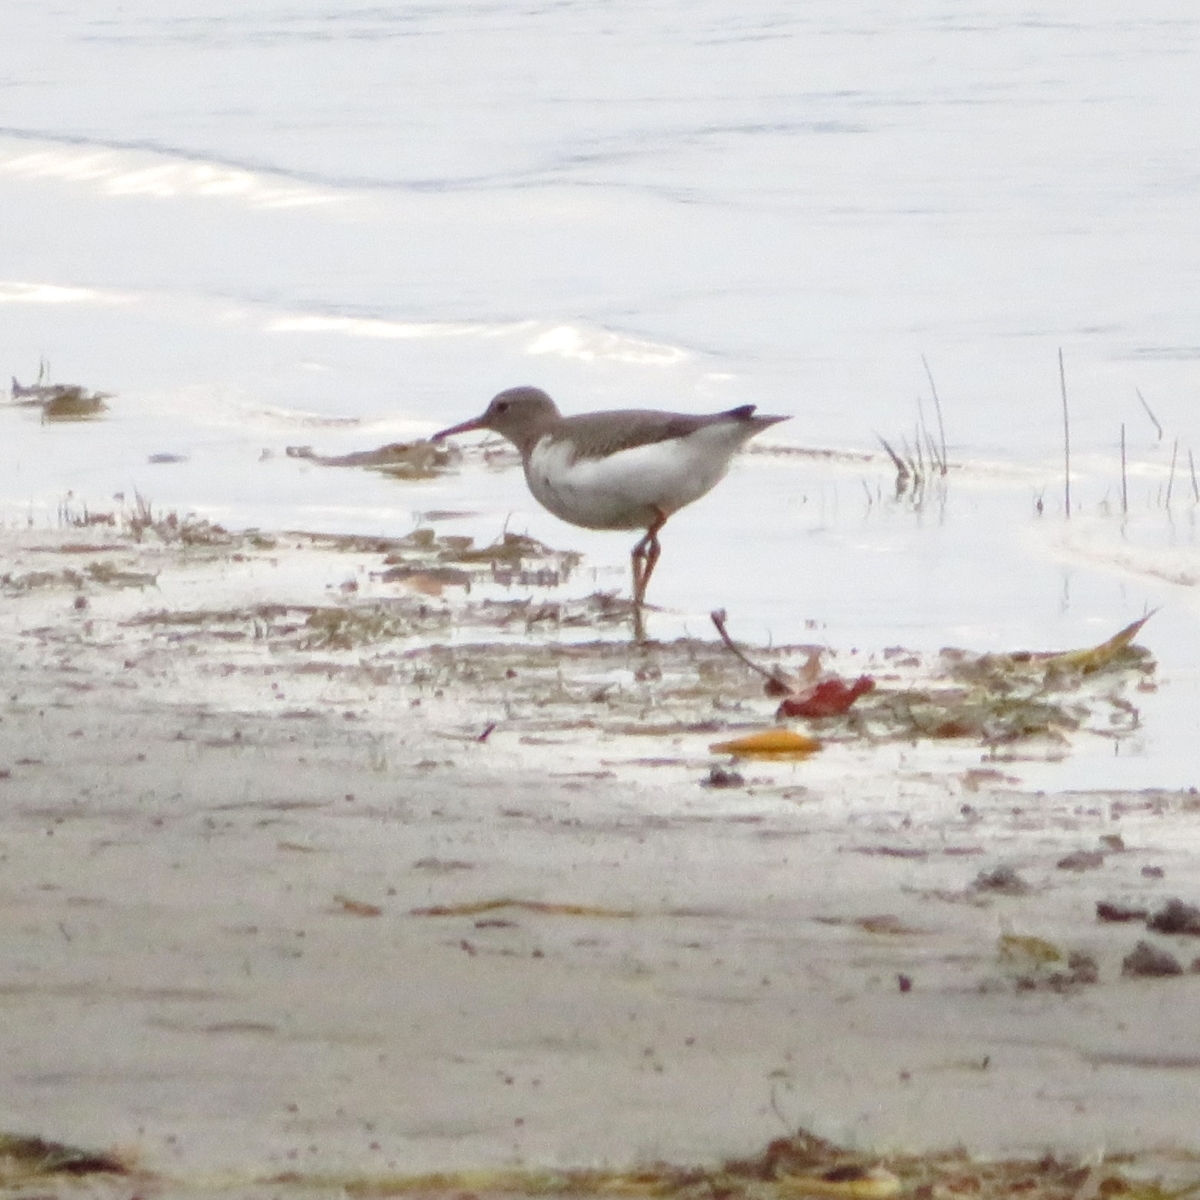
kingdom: Animalia
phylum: Chordata
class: Aves
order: Charadriiformes
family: Scolopacidae
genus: Actitis
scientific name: Actitis macularius
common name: Spotted sandpiper
